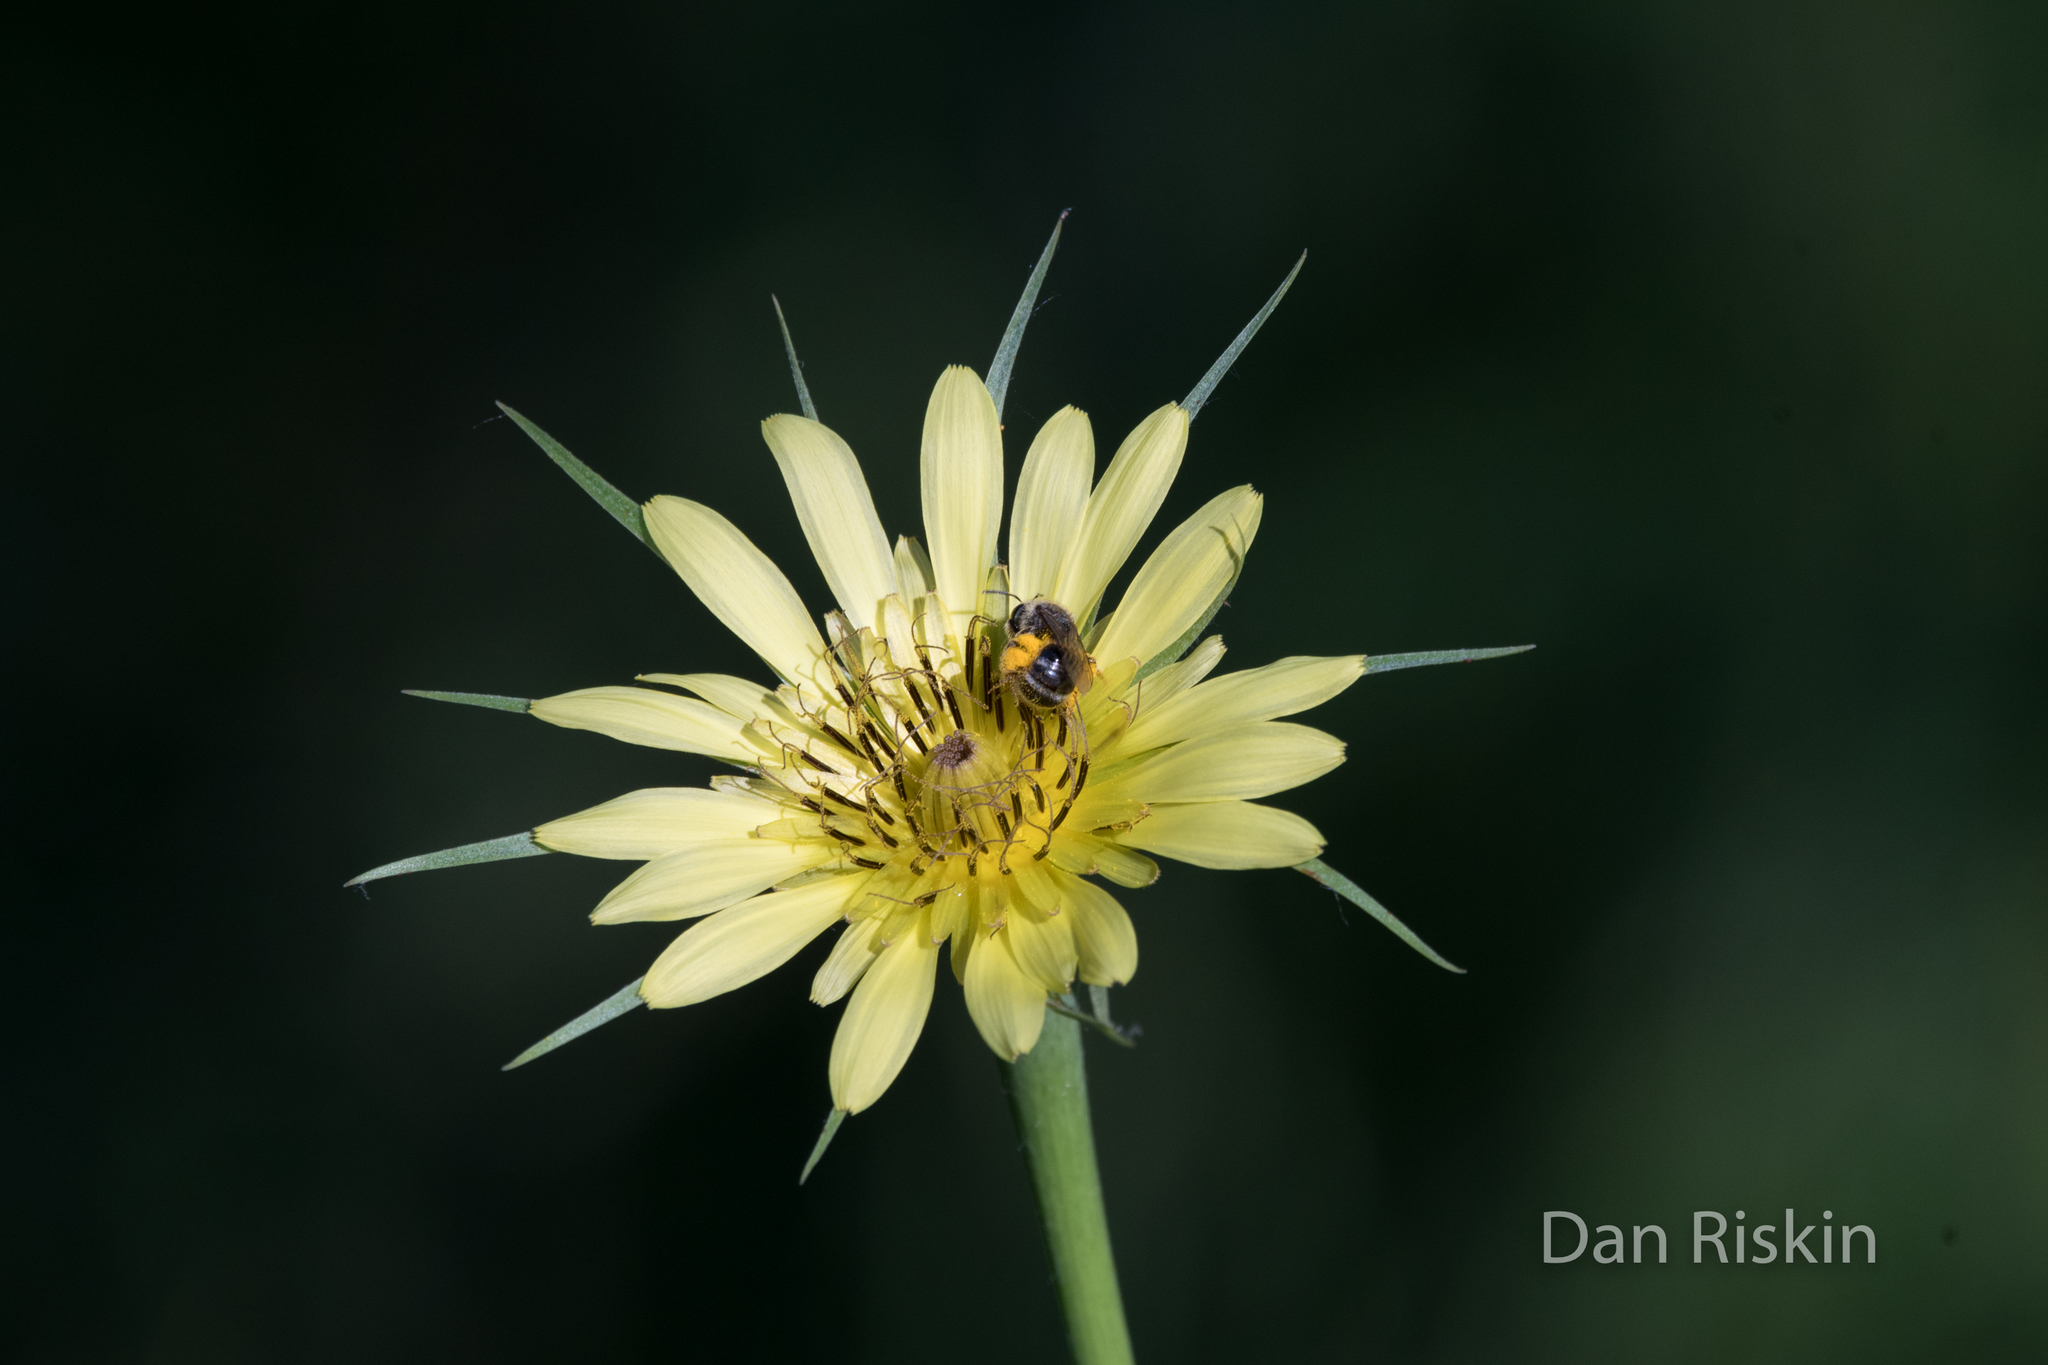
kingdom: Plantae
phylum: Tracheophyta
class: Magnoliopsida
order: Asterales
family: Asteraceae
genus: Tragopogon
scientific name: Tragopogon dubius
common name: Yellow salsify
